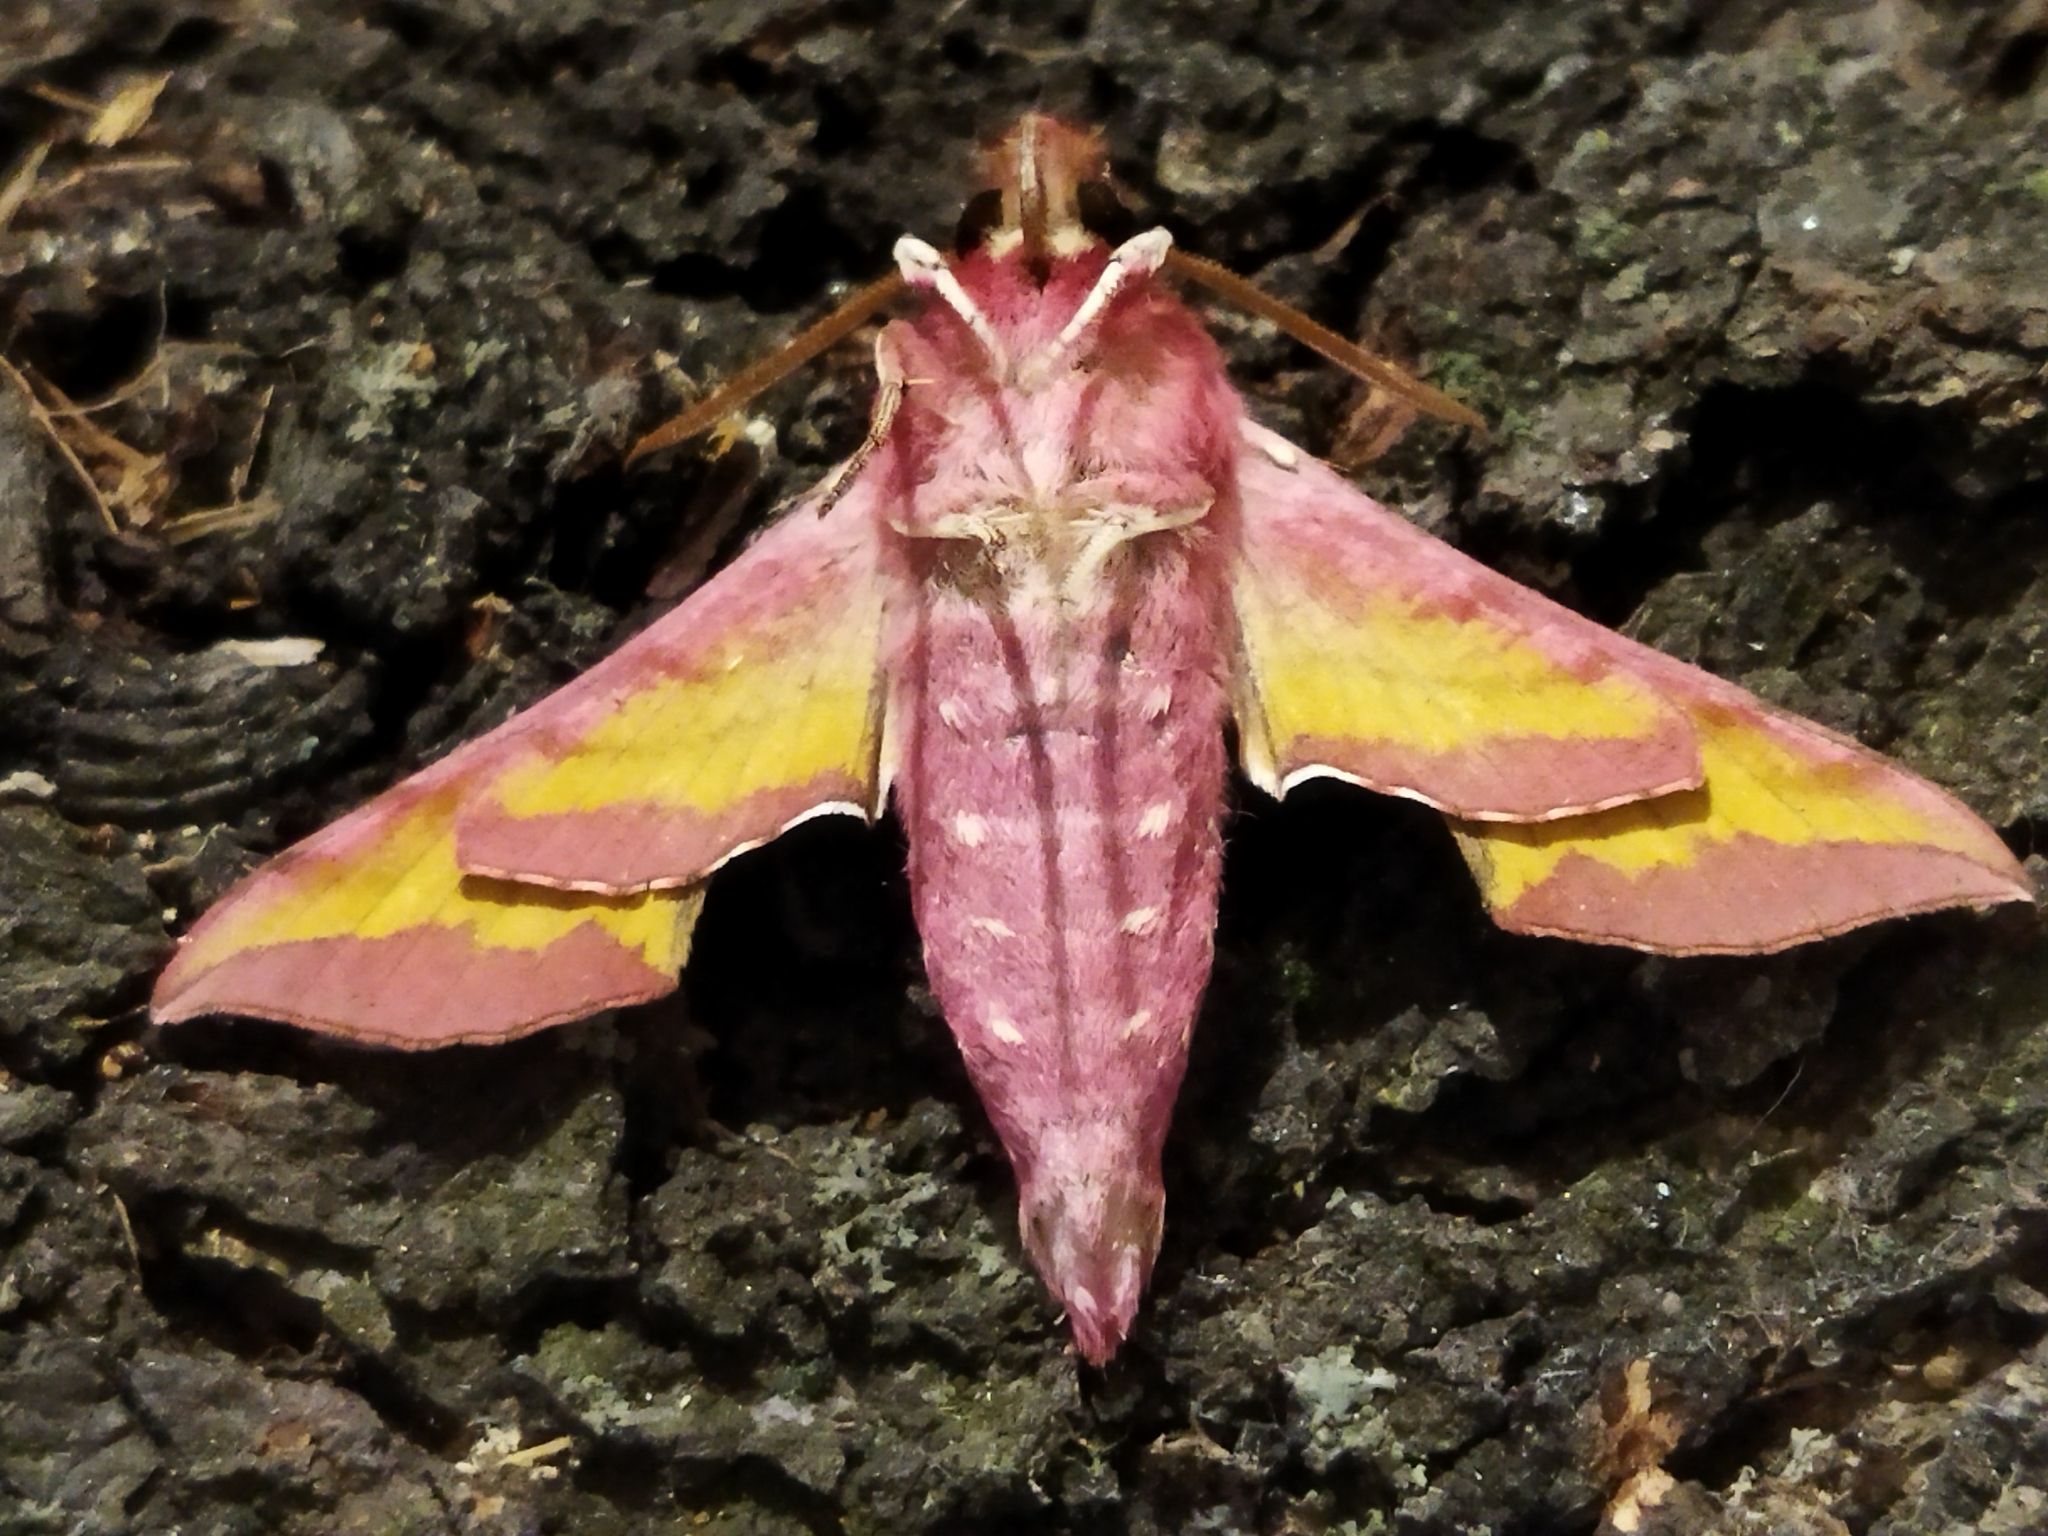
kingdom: Animalia
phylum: Arthropoda
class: Insecta
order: Lepidoptera
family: Sphingidae
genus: Deilephila
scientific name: Deilephila porcellus
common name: Small elephant hawk-moth
